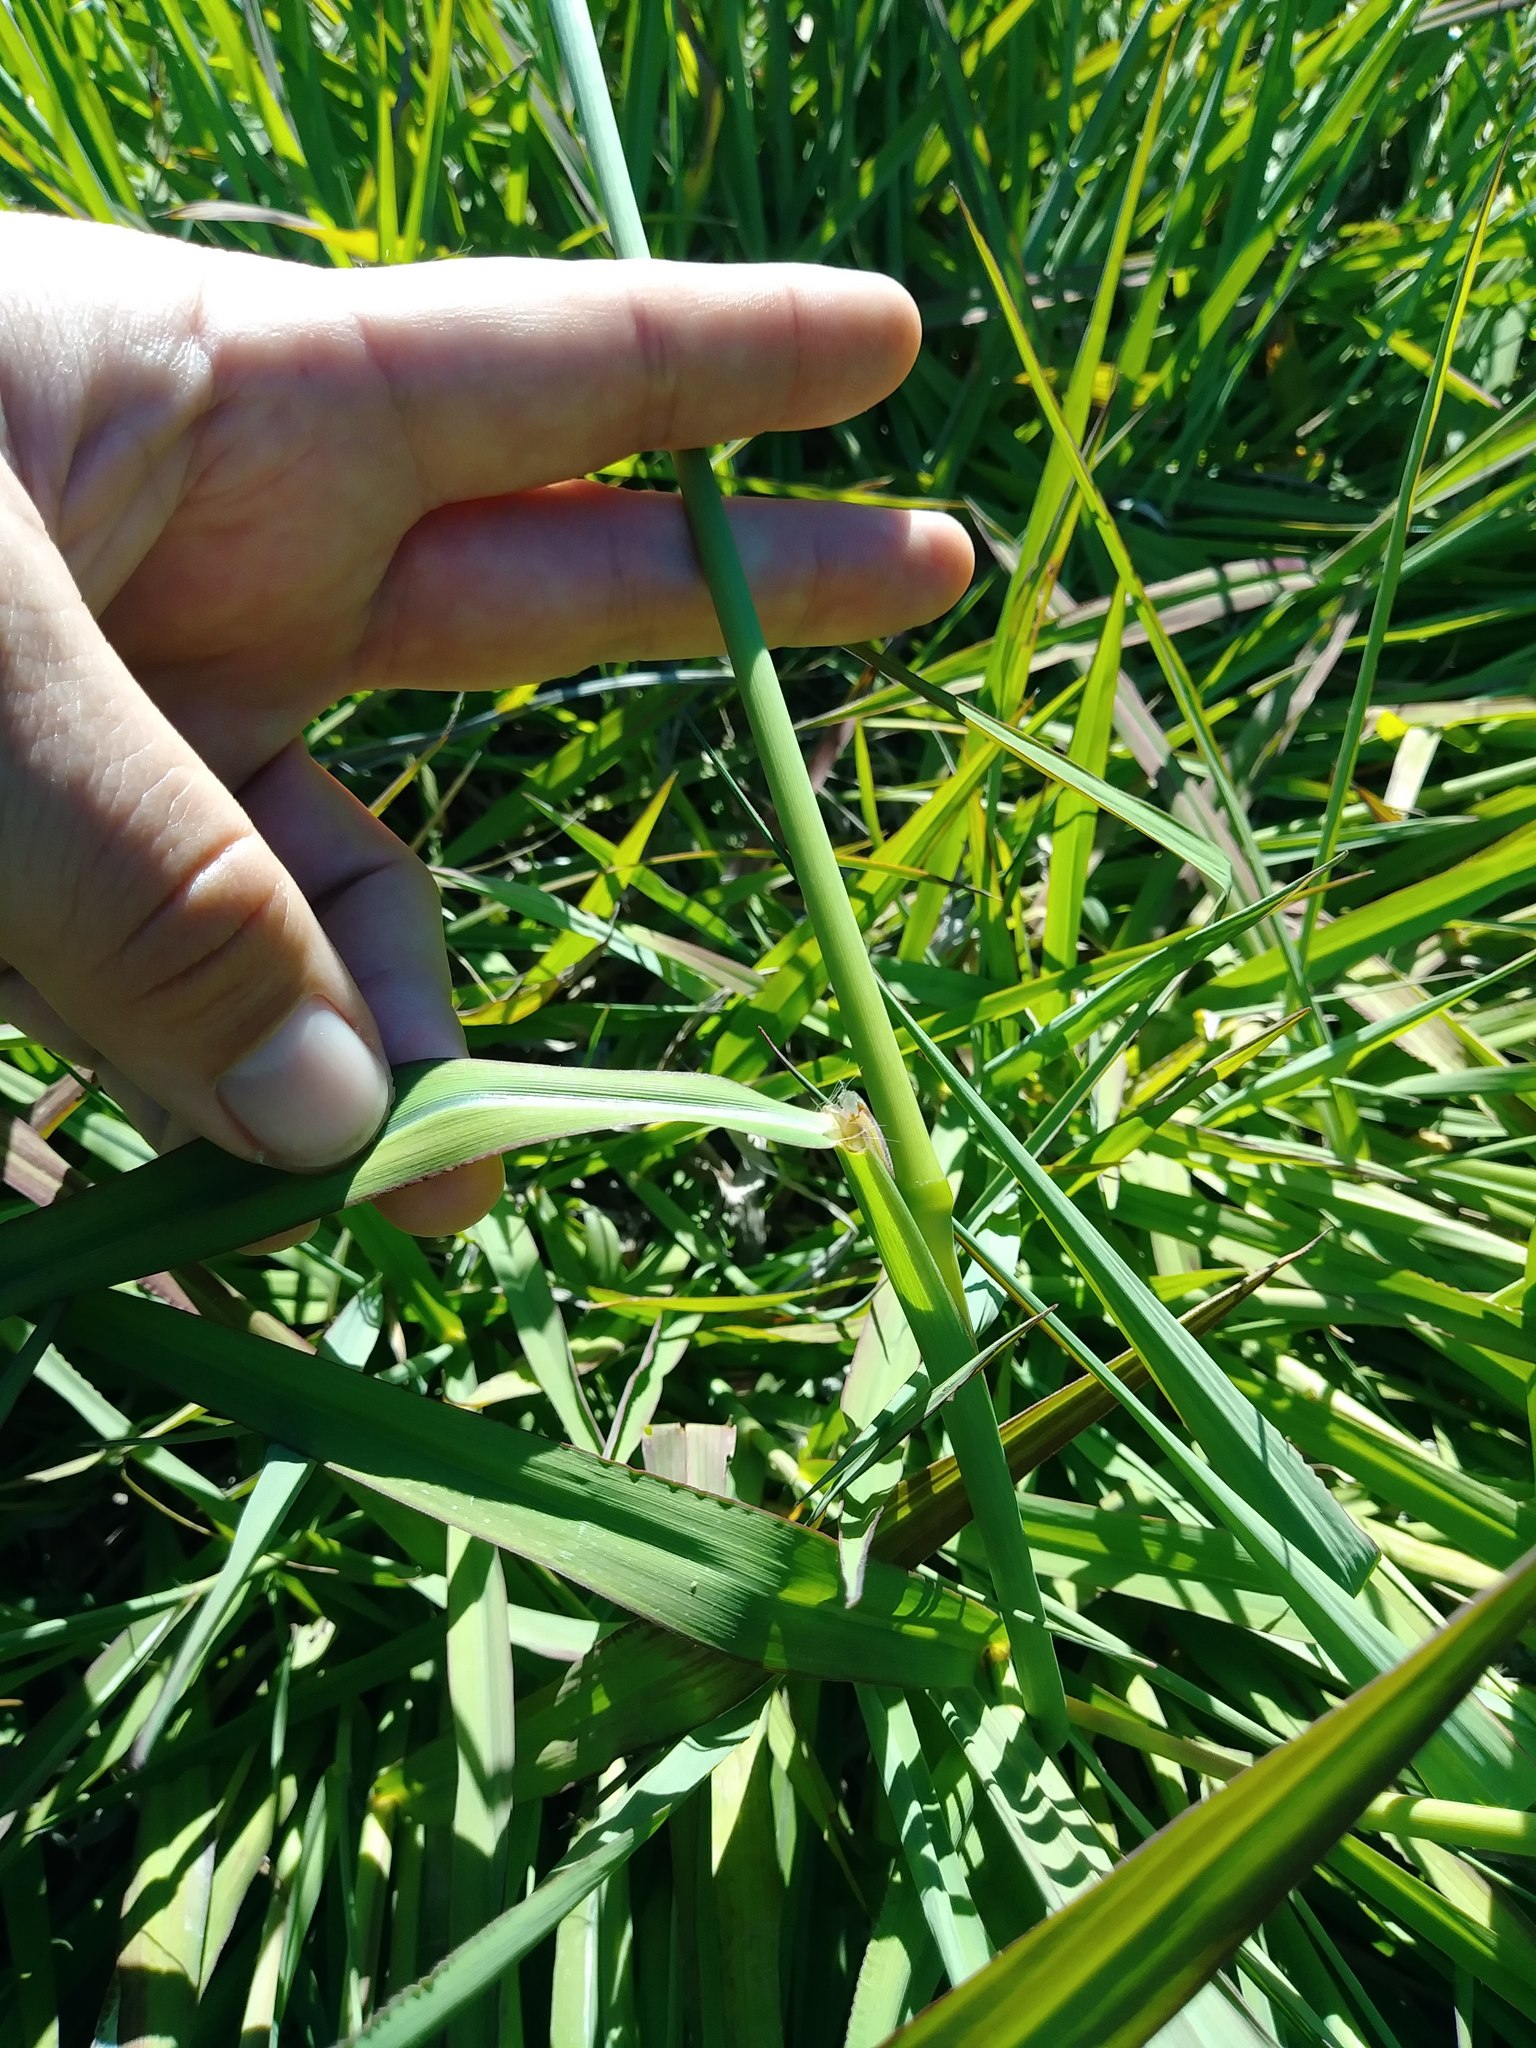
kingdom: Plantae
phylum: Tracheophyta
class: Liliopsida
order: Poales
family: Poaceae
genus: Paspalum
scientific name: Paspalum dilatatum
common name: Dallisgrass
